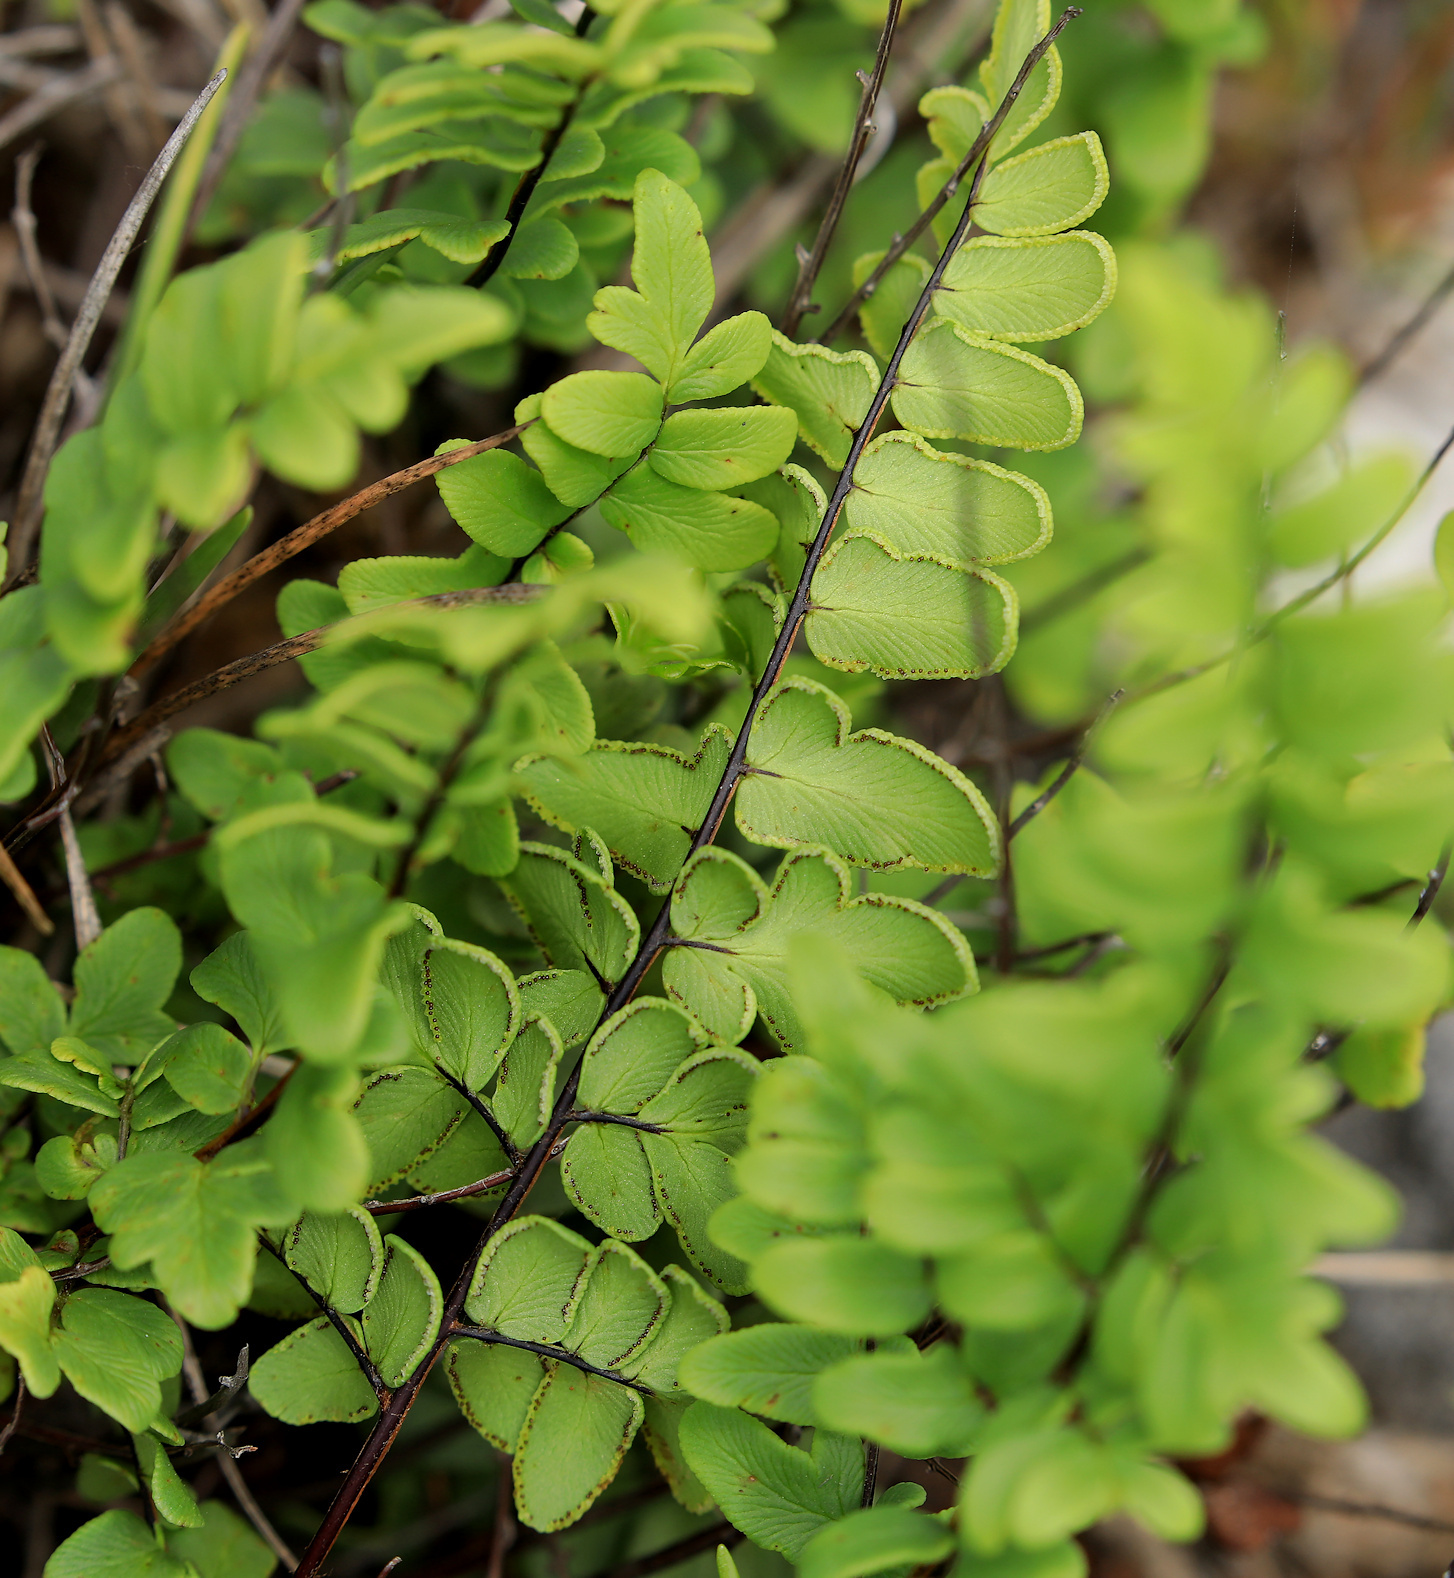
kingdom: Plantae
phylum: Tracheophyta
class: Polypodiopsida
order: Polypodiales
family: Pteridaceae
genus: Cheilanthes
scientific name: Cheilanthes viridis
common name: Green cliffbrake
